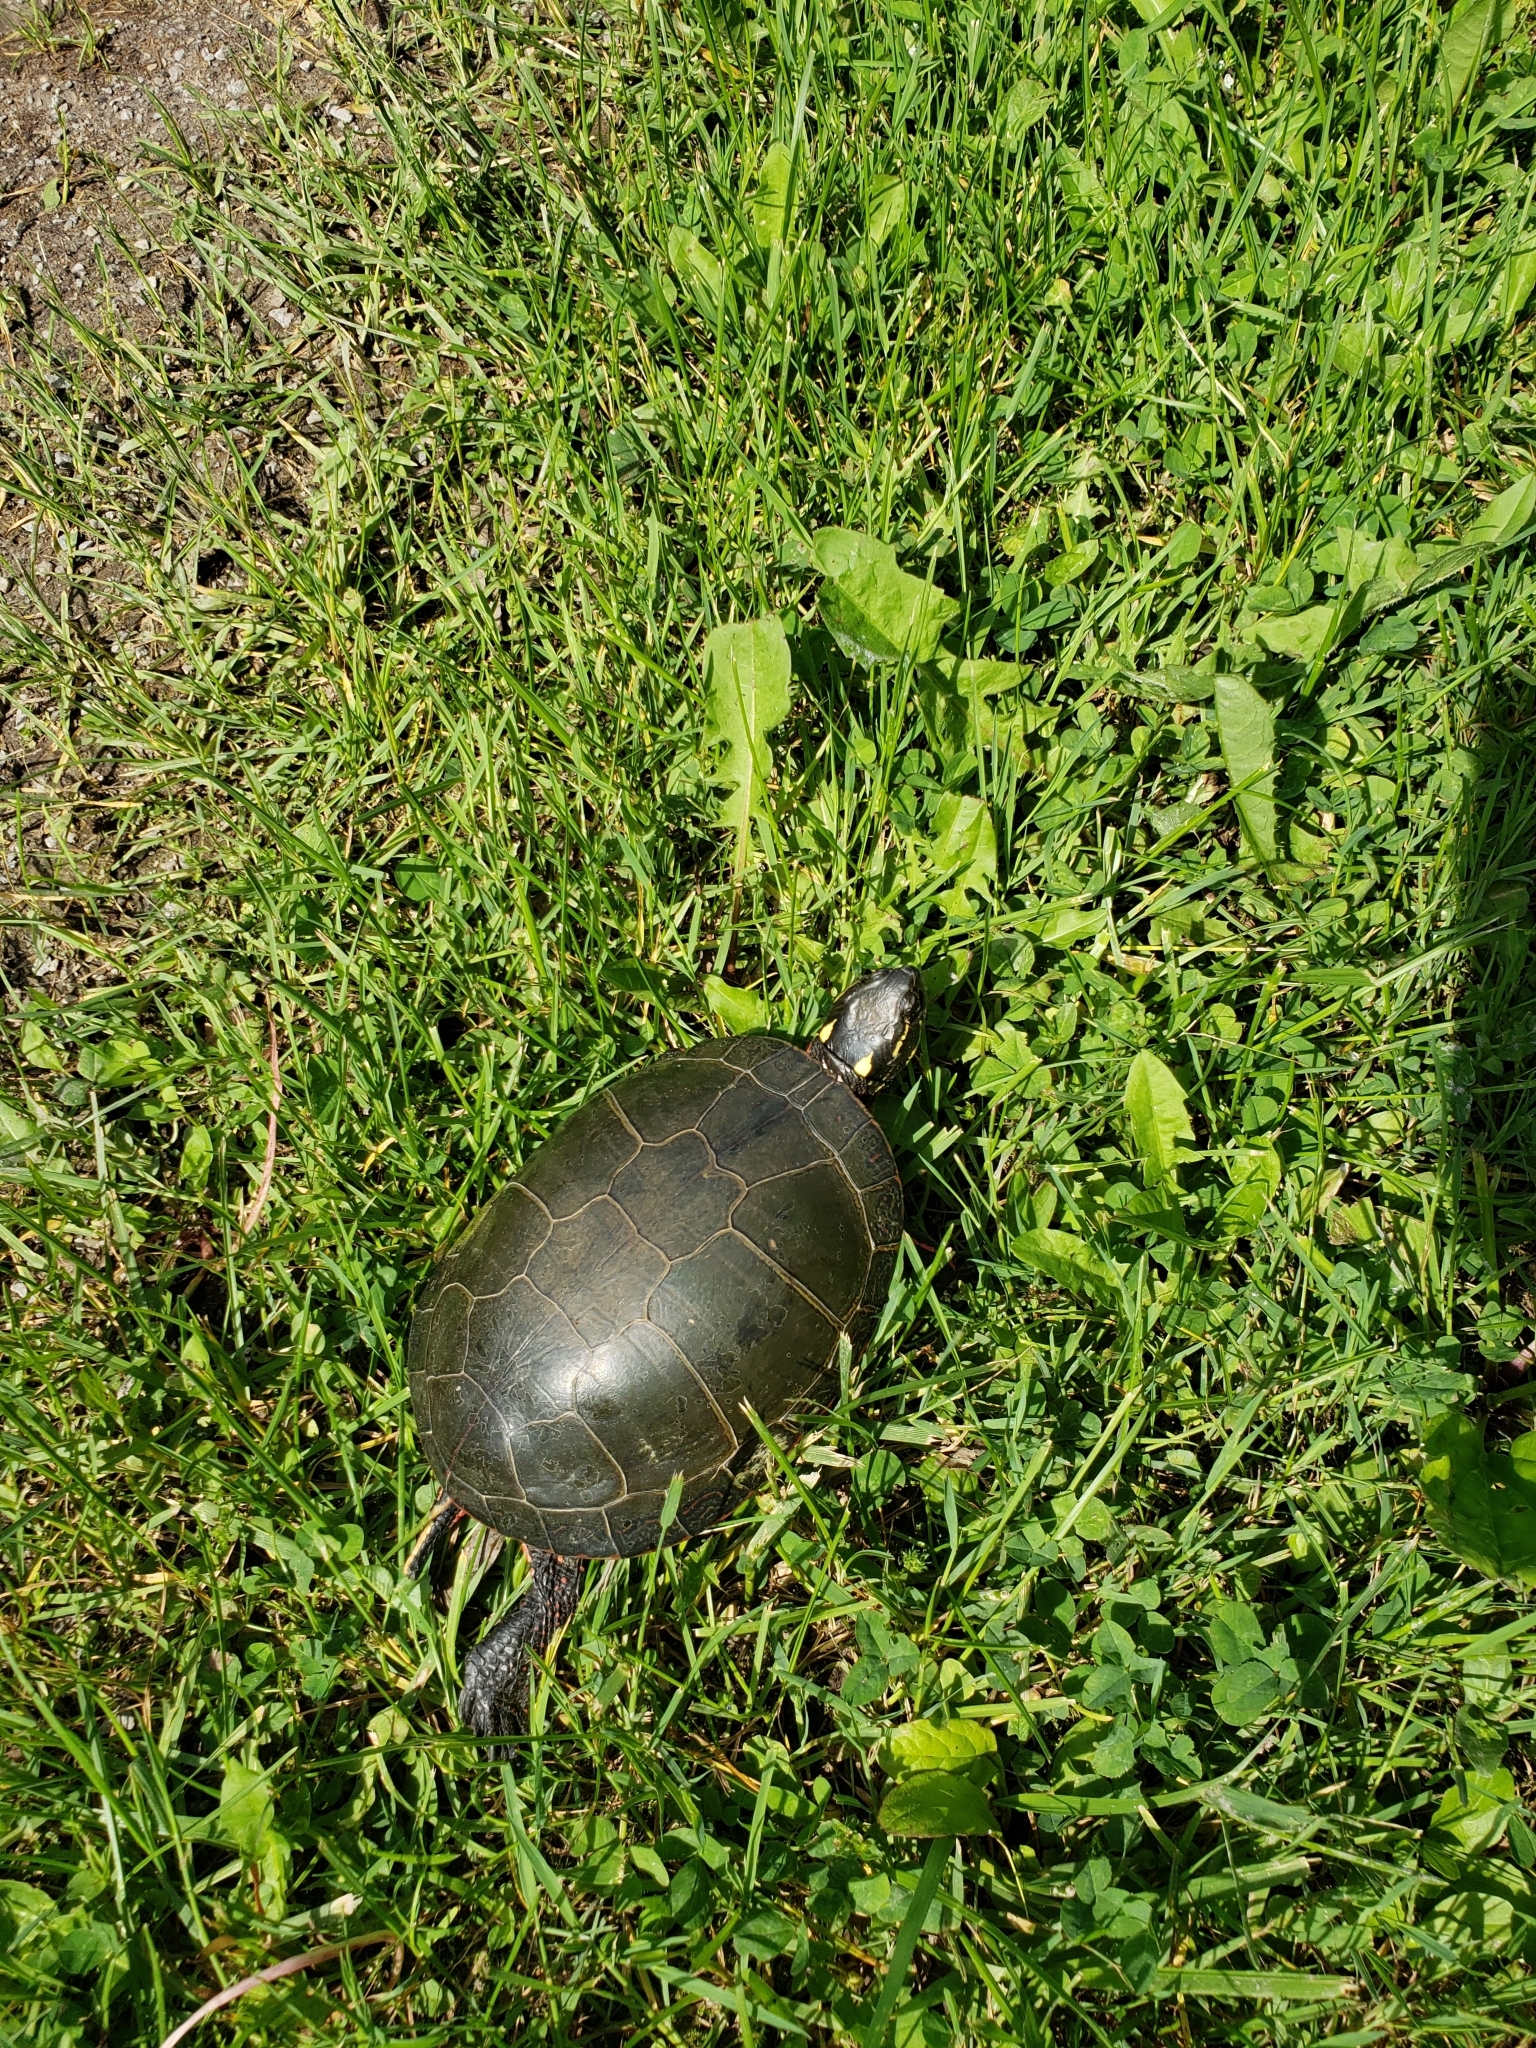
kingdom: Animalia
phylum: Chordata
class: Testudines
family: Emydidae
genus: Chrysemys
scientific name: Chrysemys picta
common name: Painted turtle
